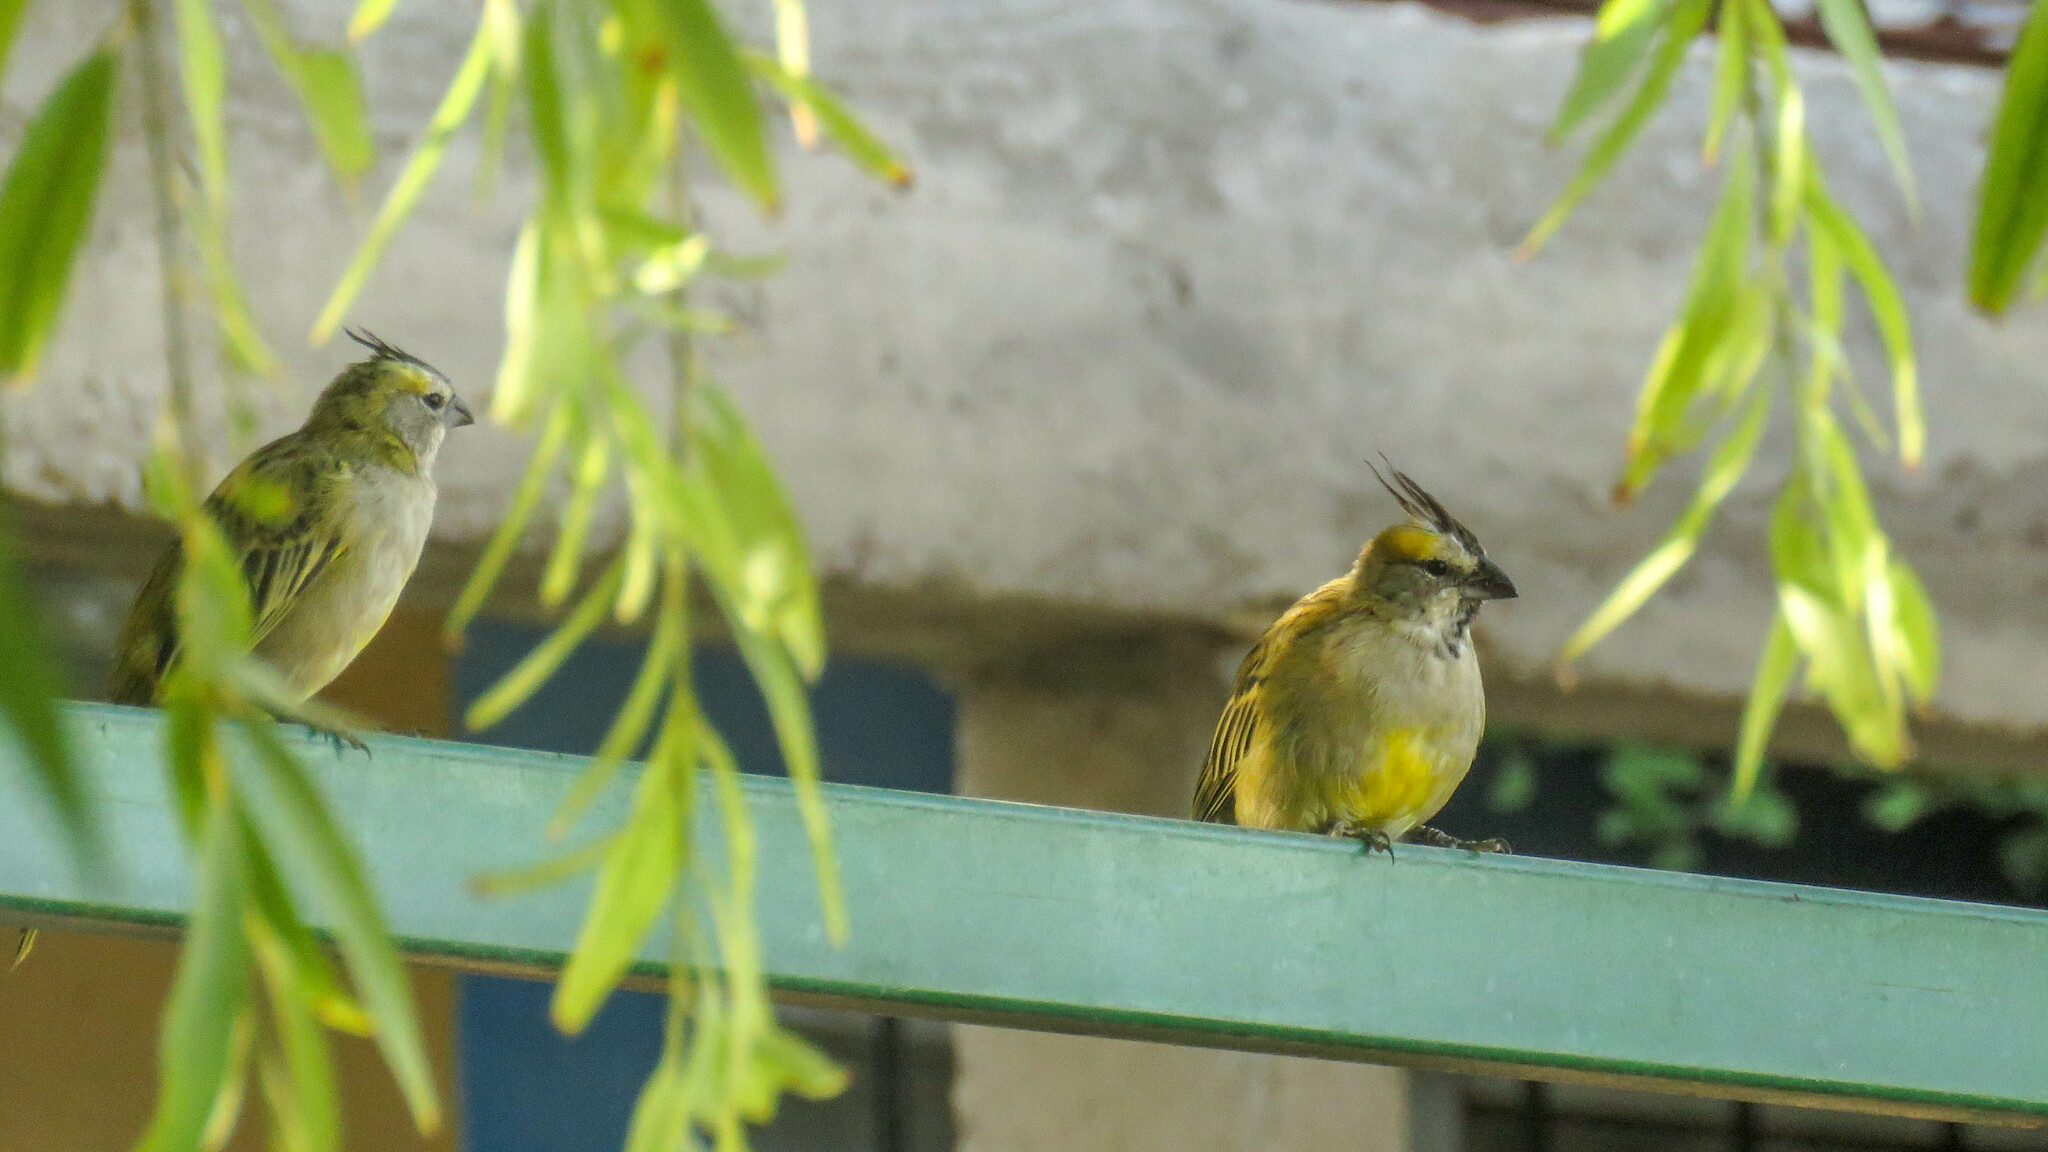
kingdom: Animalia
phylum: Chordata
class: Aves
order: Passeriformes
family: Thraupidae
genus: Gubernatrix
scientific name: Gubernatrix cristata
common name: Yellow cardinal
